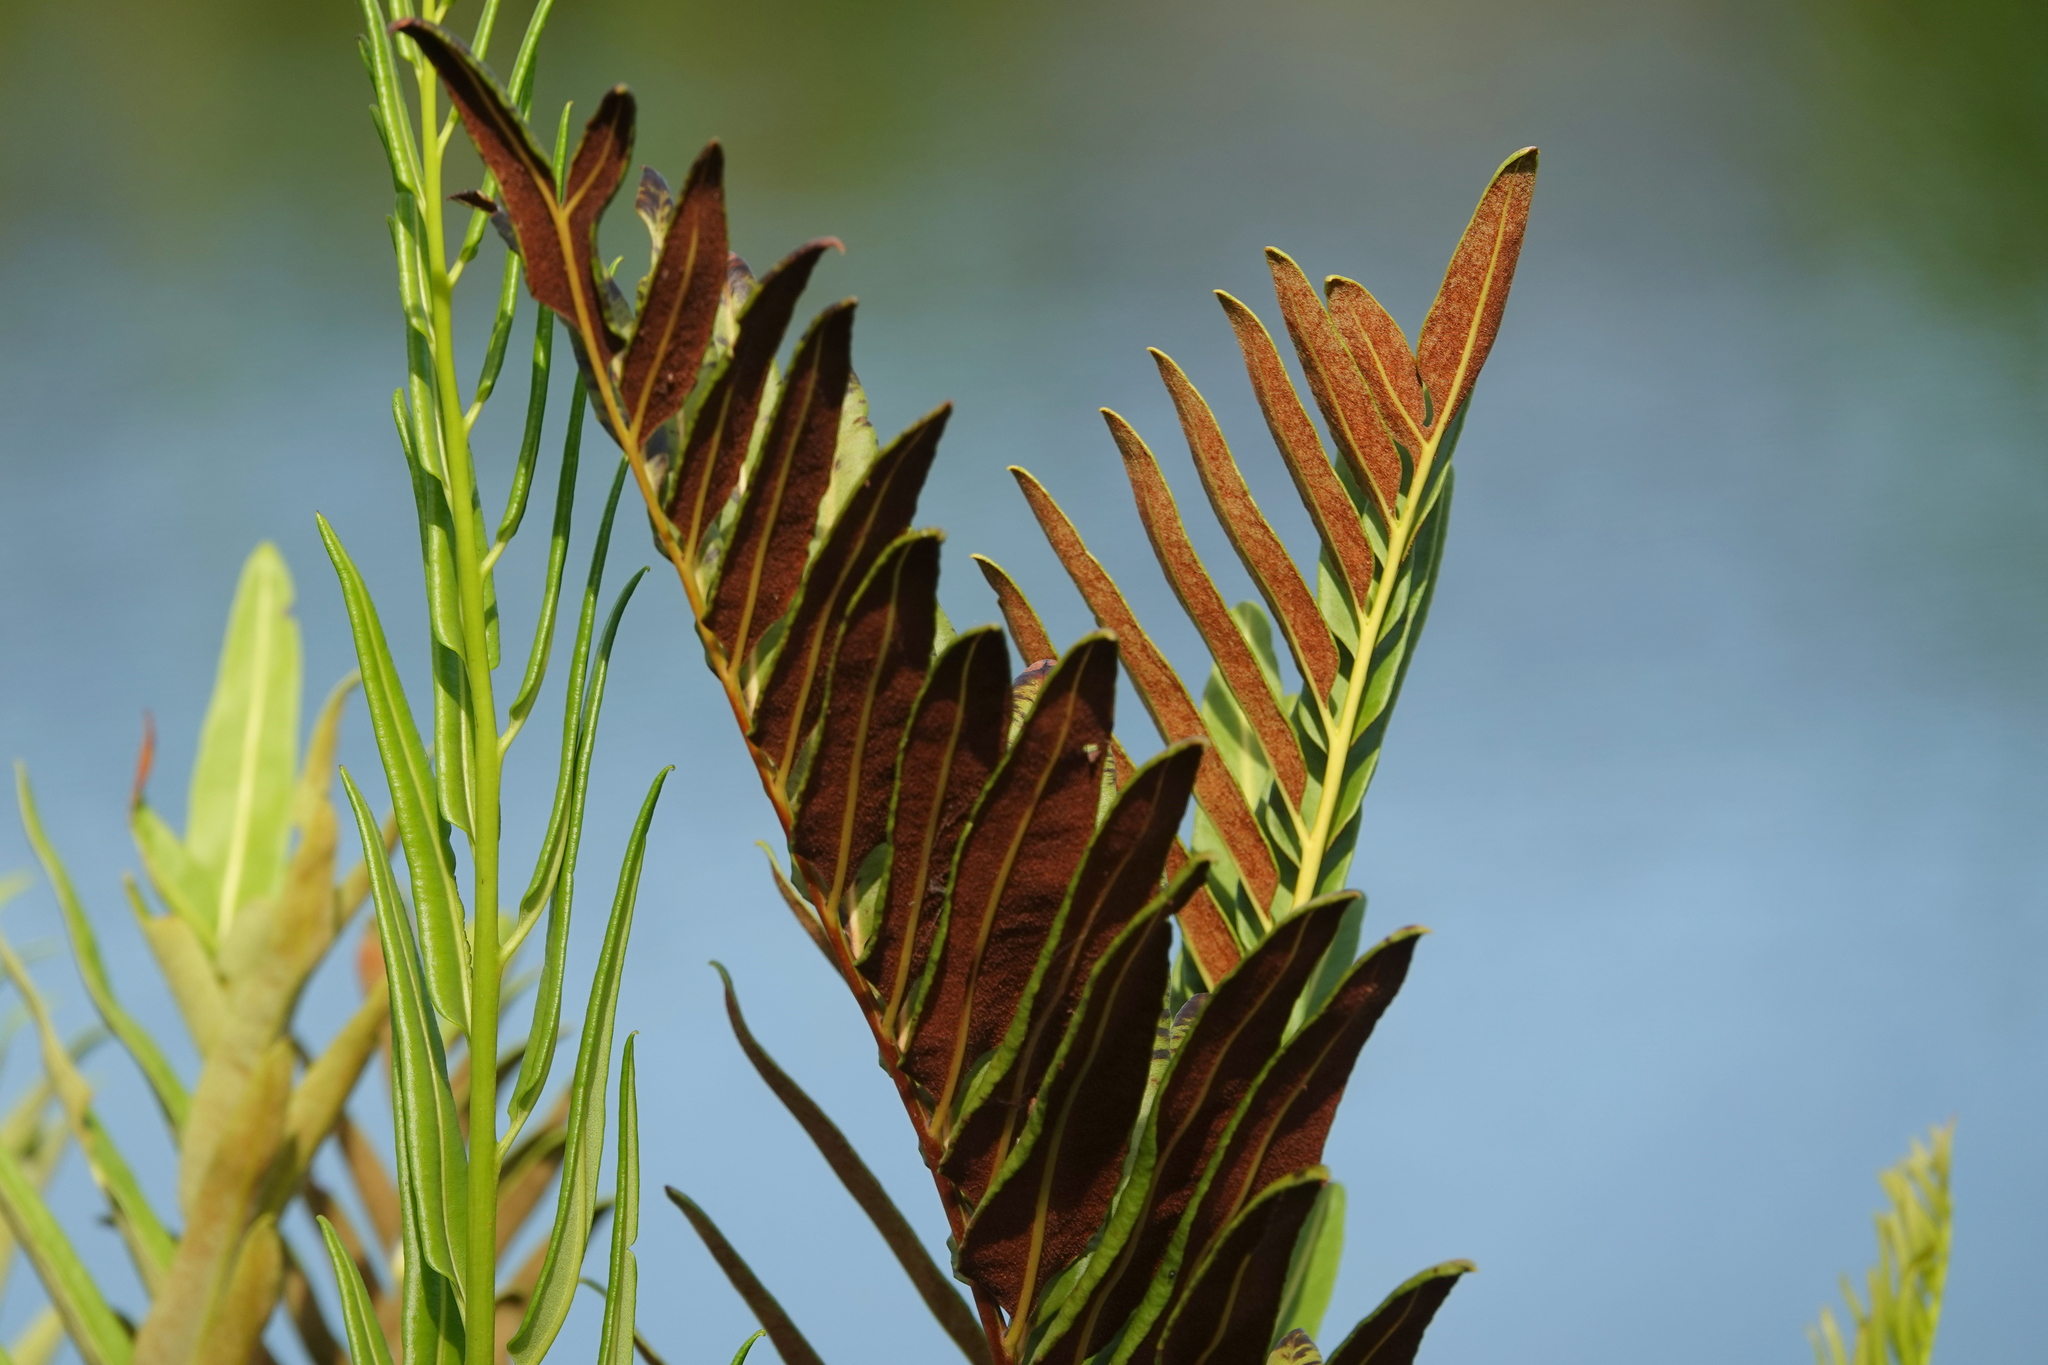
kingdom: Plantae
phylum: Tracheophyta
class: Polypodiopsida
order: Polypodiales
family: Pteridaceae
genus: Acrostichum
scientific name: Acrostichum danaeifolium
